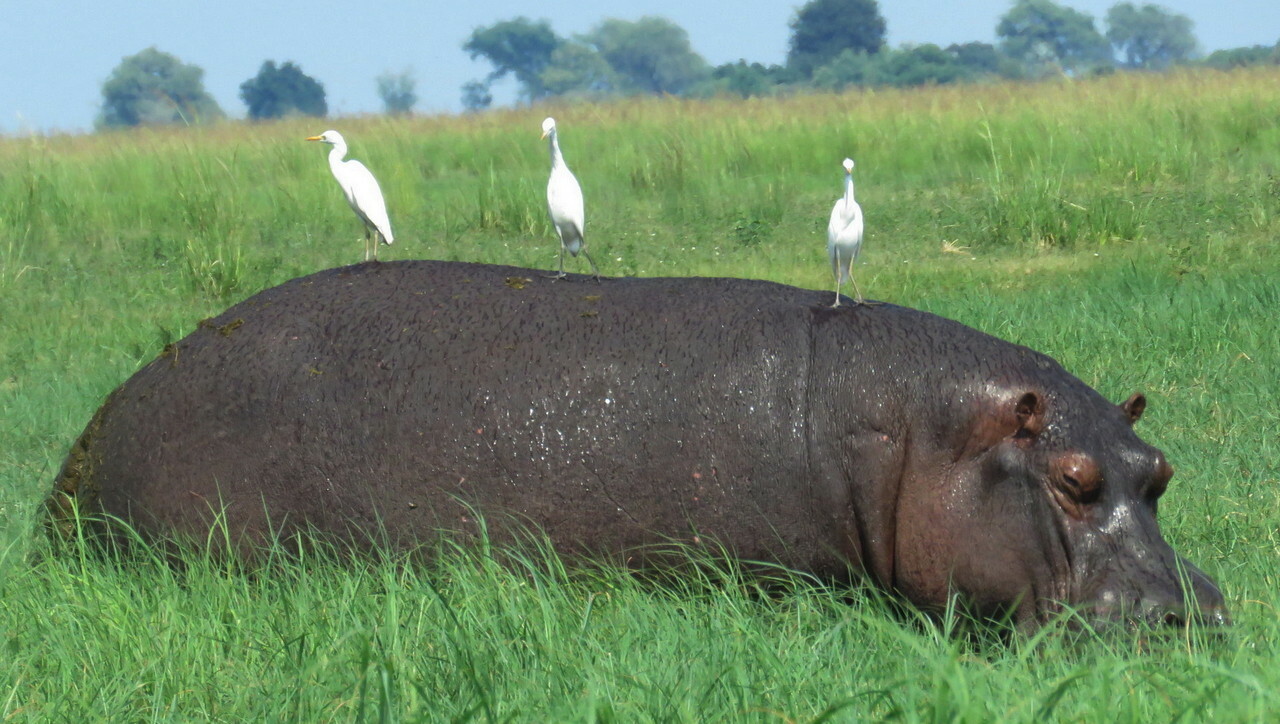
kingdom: Animalia
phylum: Chordata
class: Mammalia
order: Artiodactyla
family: Hippopotamidae
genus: Hippopotamus
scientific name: Hippopotamus amphibius
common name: Common hippopotamus
